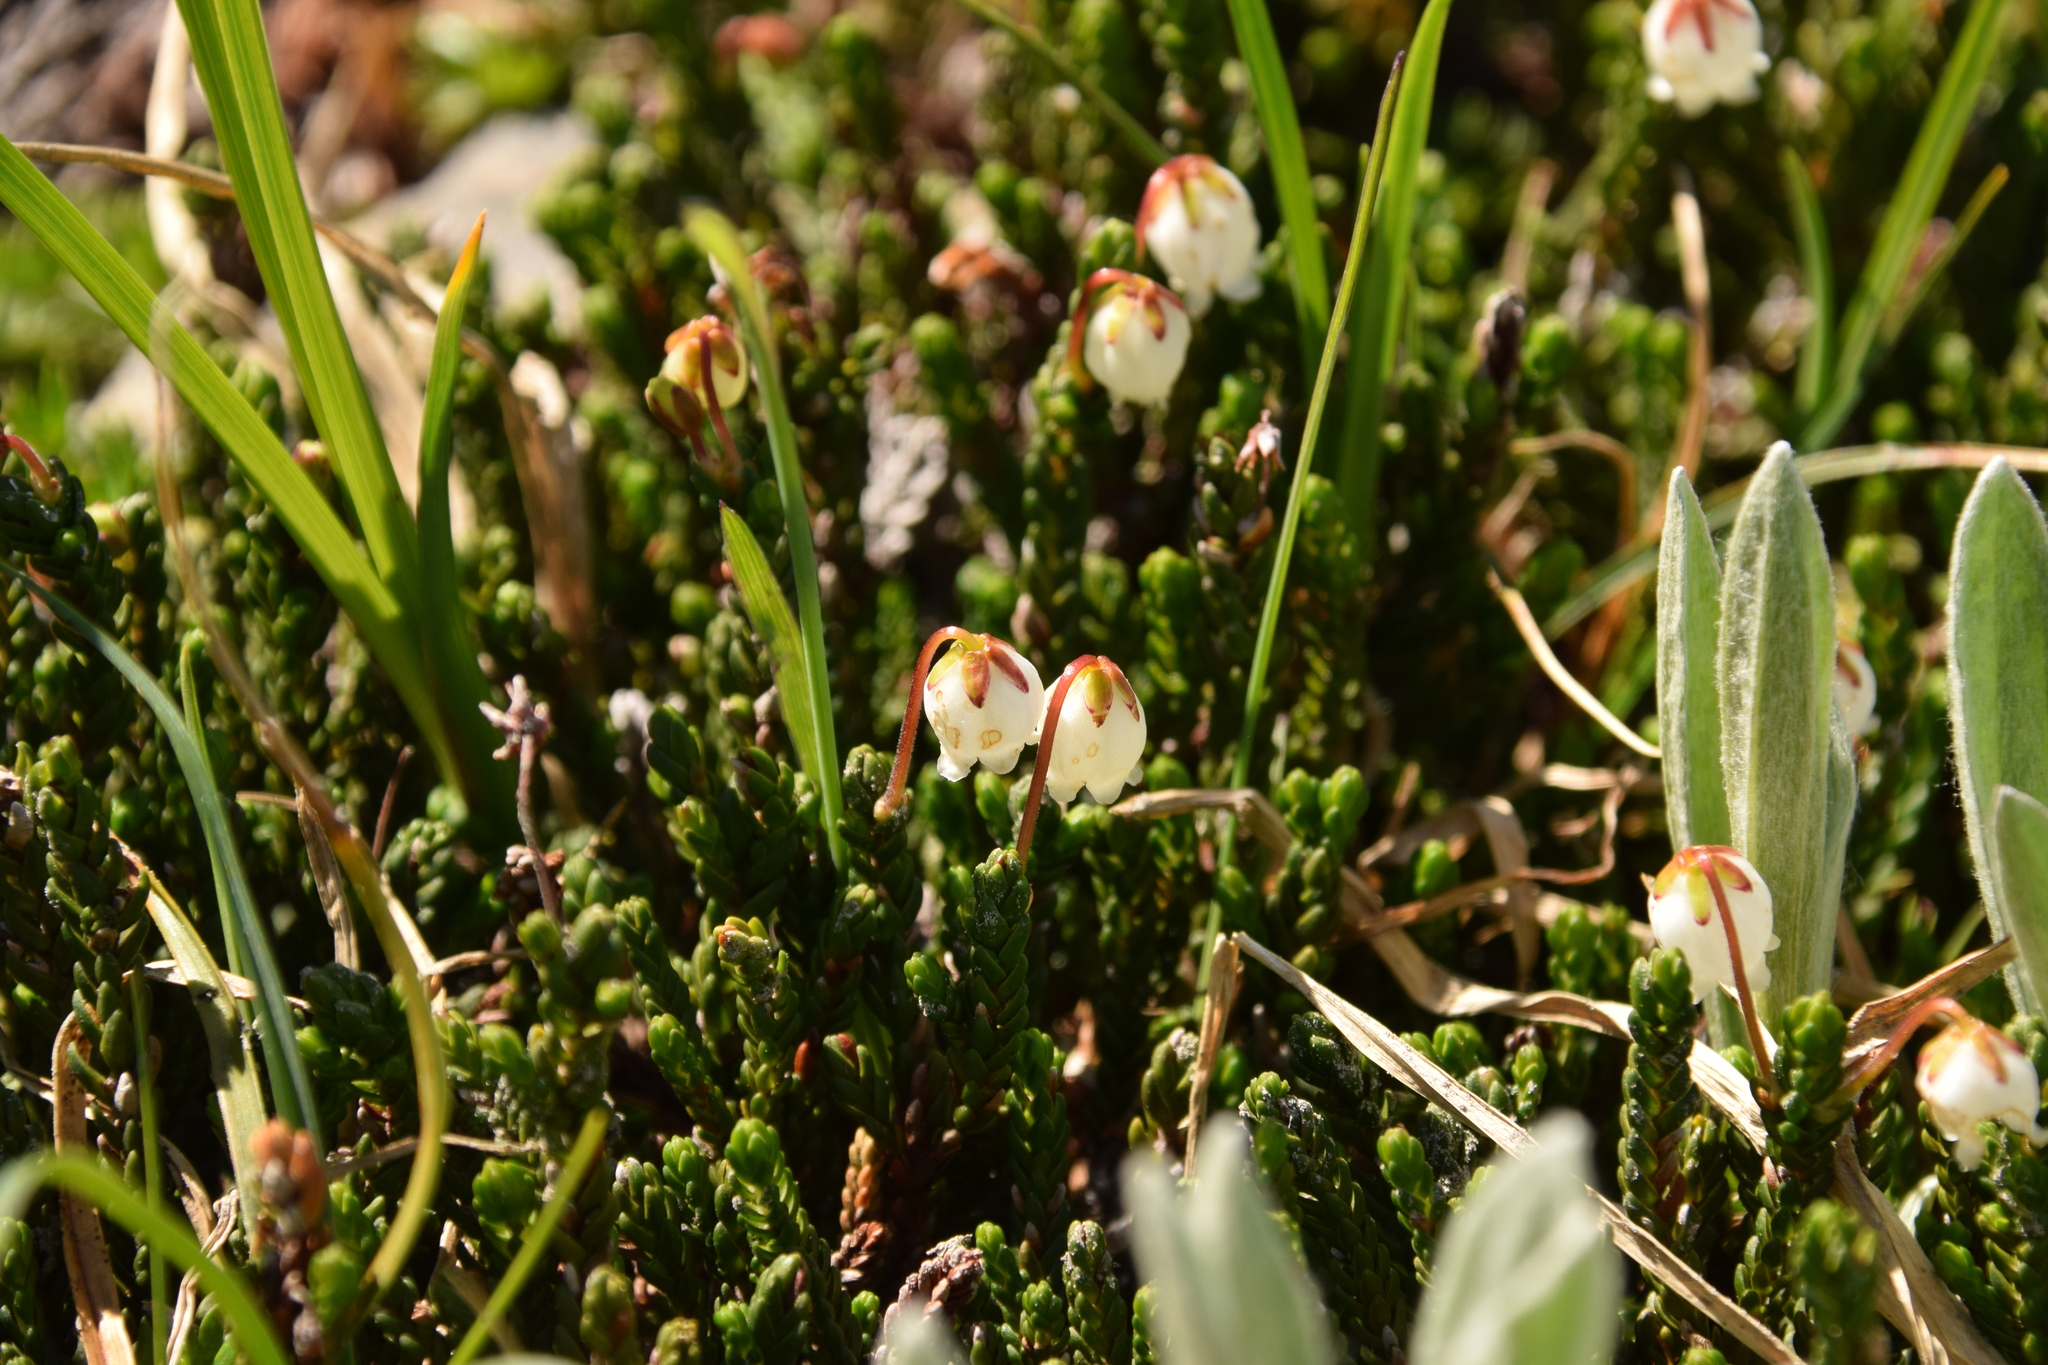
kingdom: Plantae
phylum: Tracheophyta
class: Magnoliopsida
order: Ericales
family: Ericaceae
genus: Cassiope
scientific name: Cassiope mertensiana
